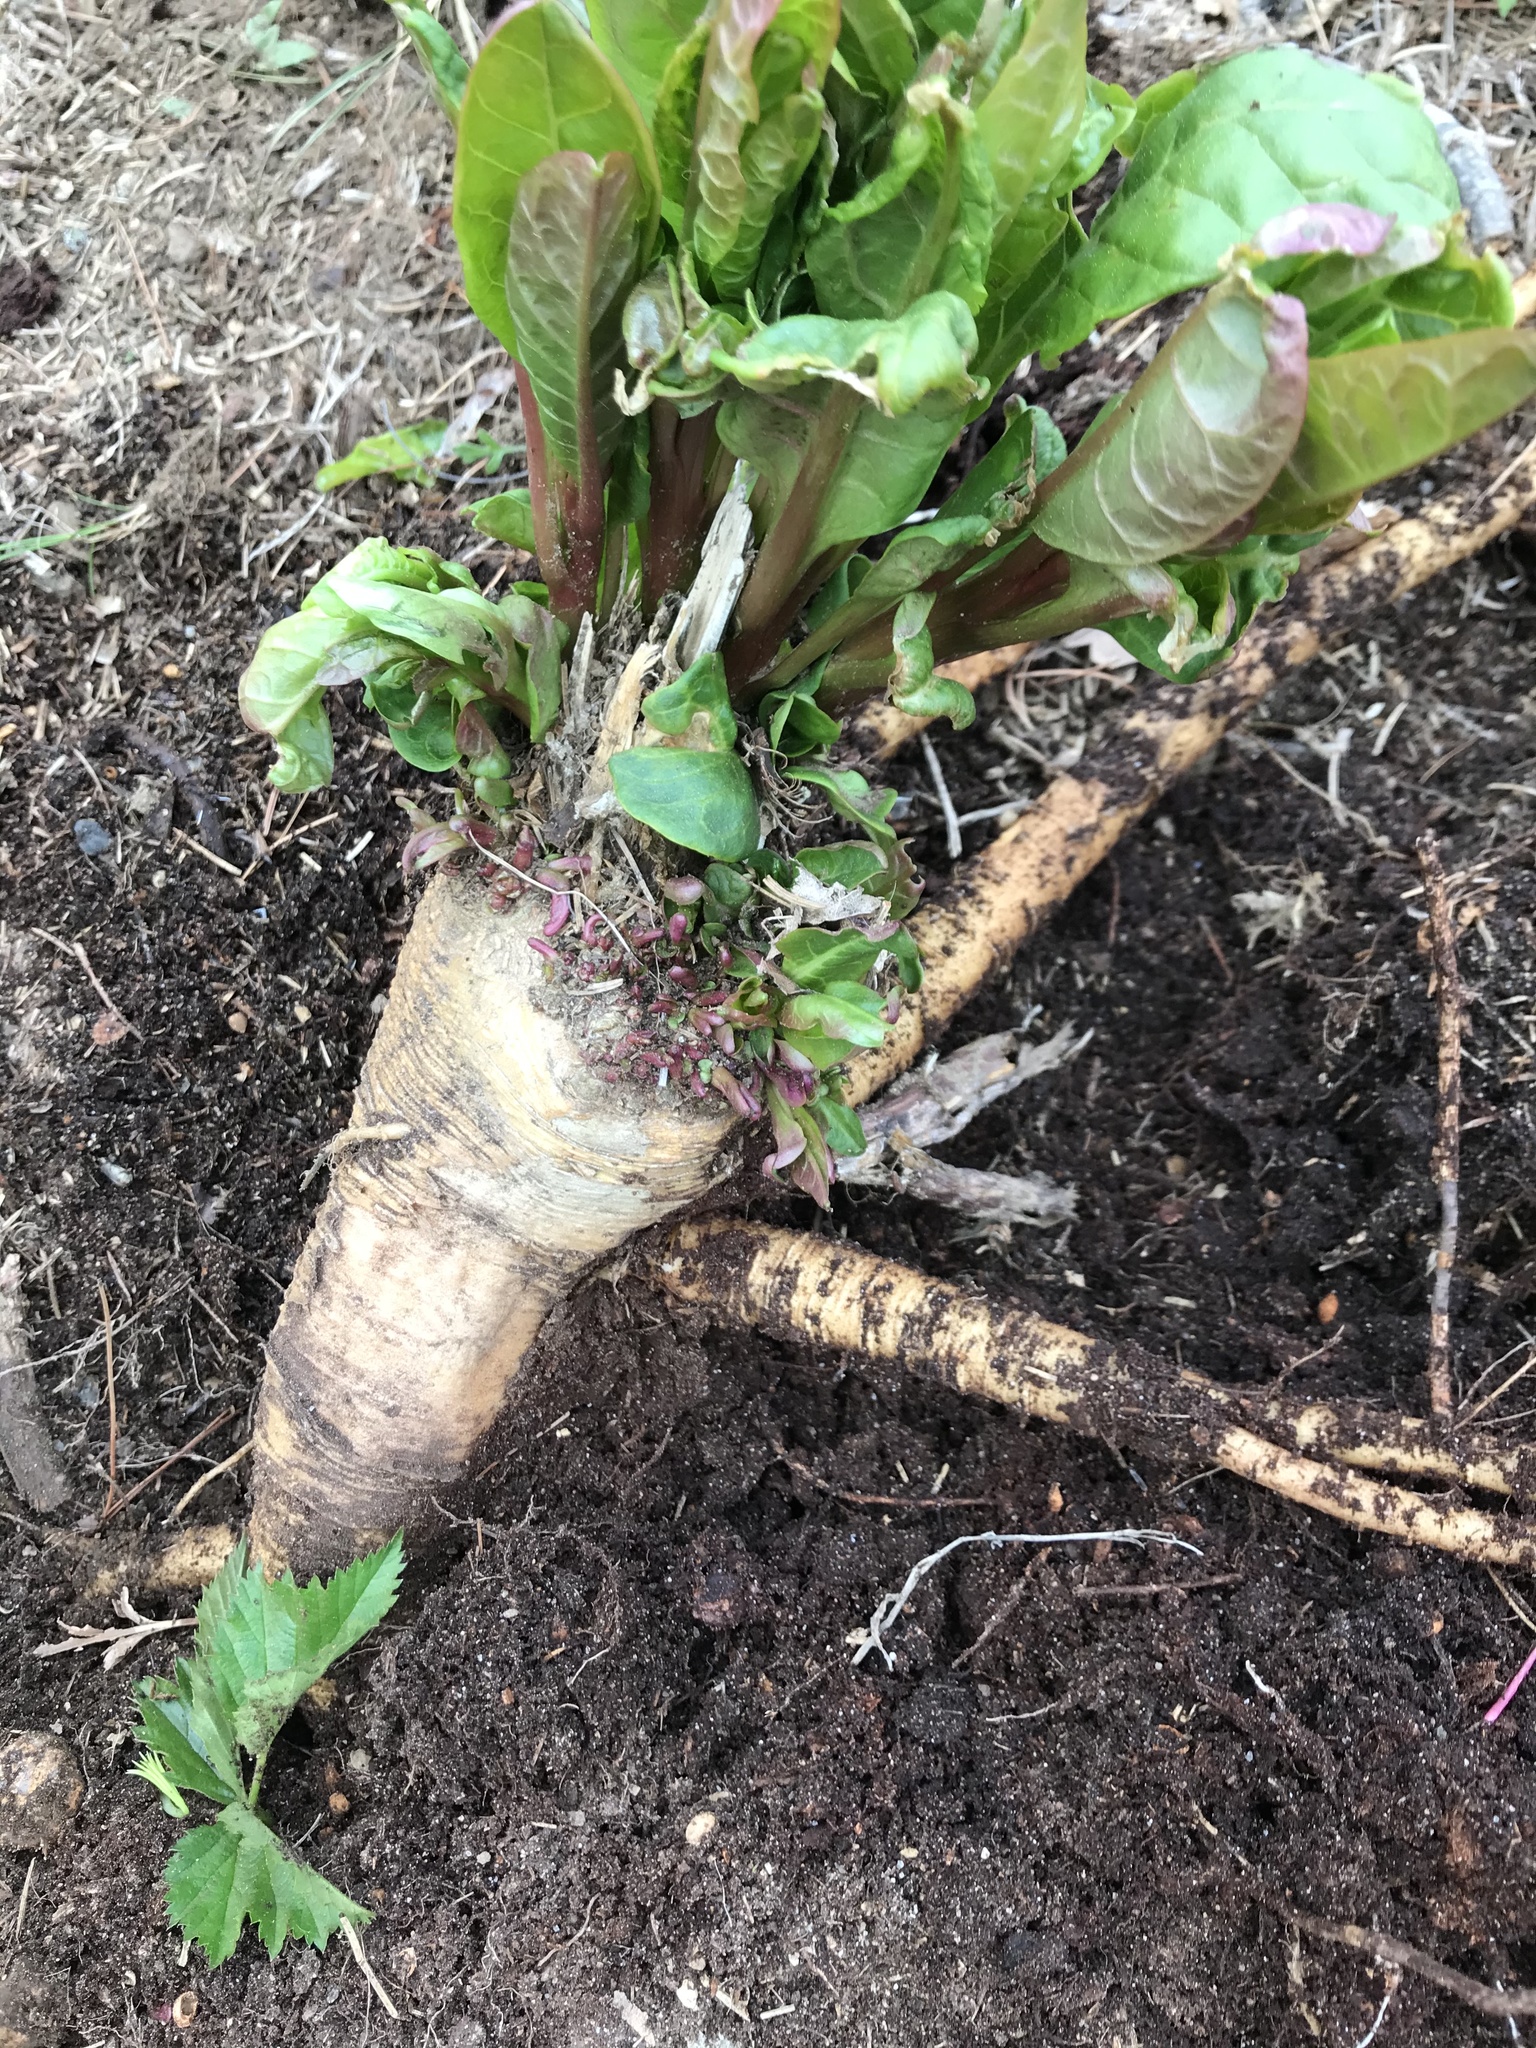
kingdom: Plantae
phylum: Tracheophyta
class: Magnoliopsida
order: Brassicales
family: Brassicaceae
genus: Armoracia
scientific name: Armoracia rusticana
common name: Horseradish
